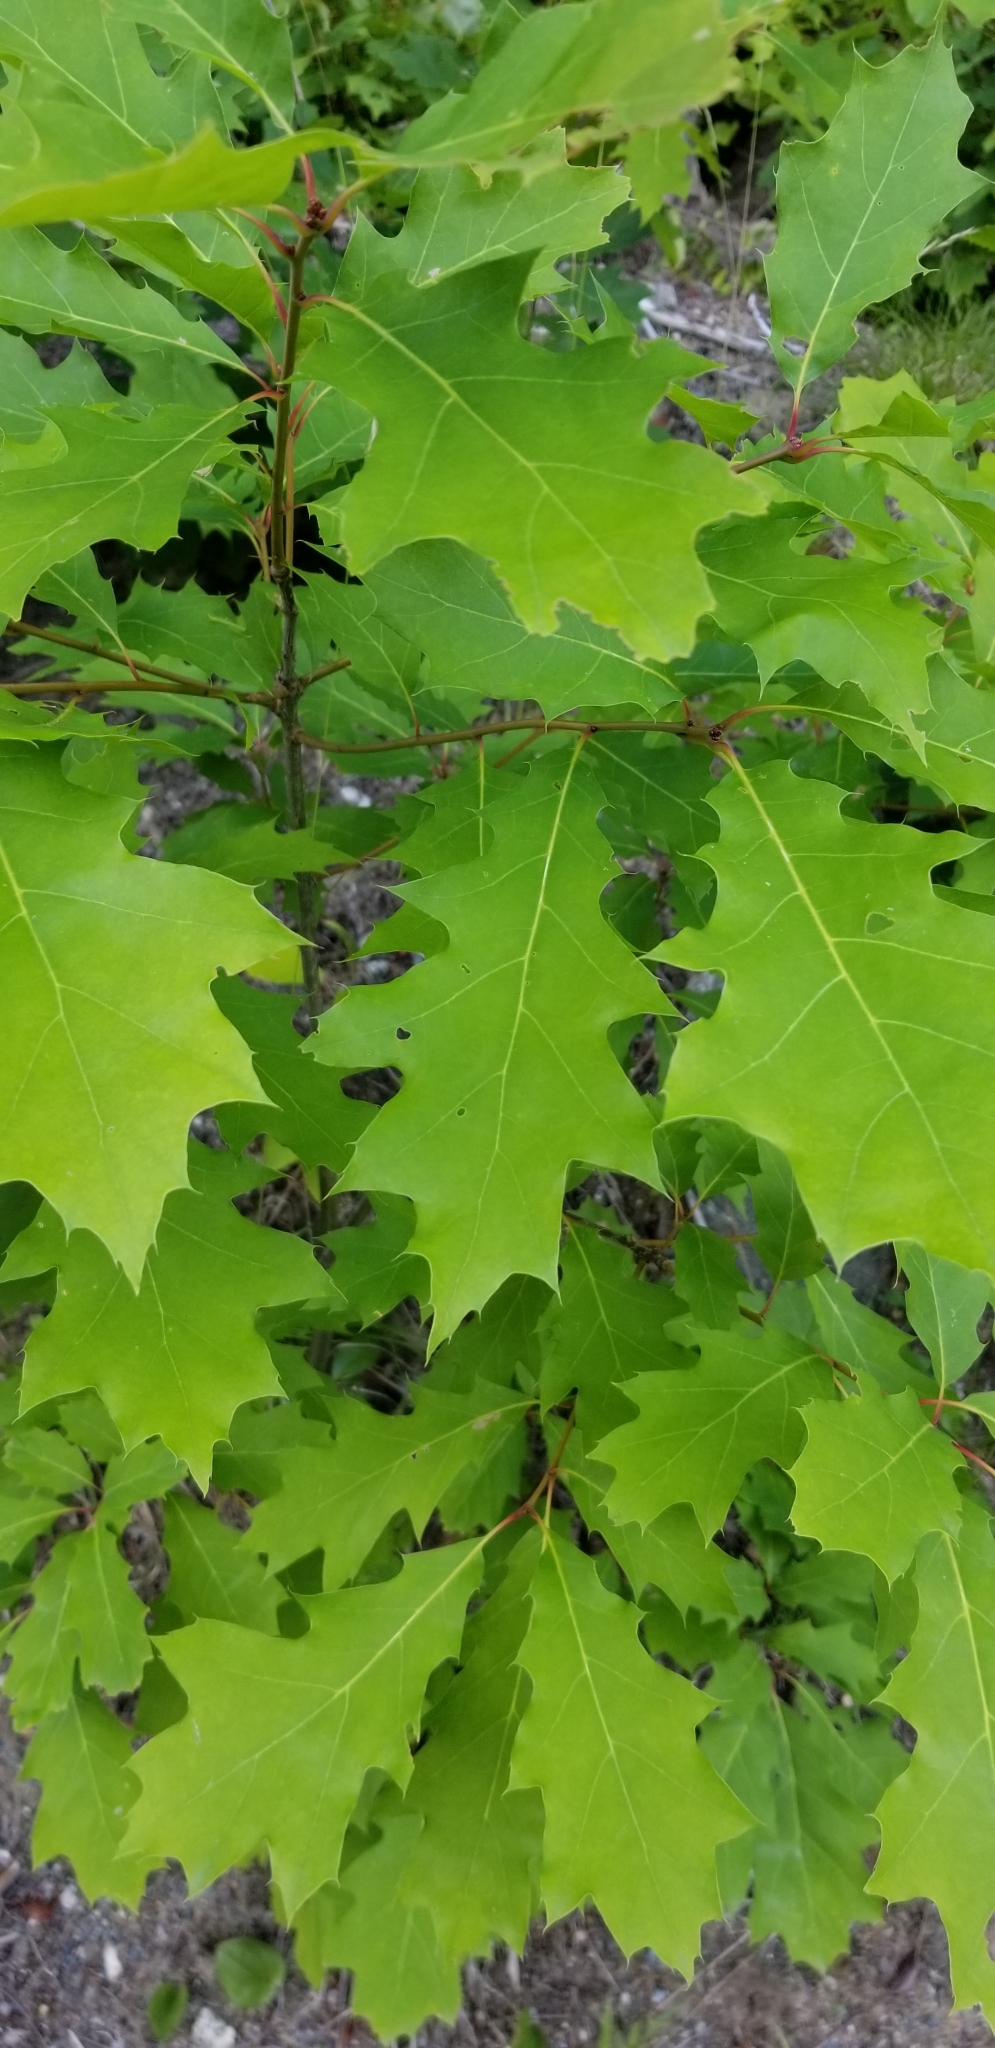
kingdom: Plantae
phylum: Tracheophyta
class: Magnoliopsida
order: Fagales
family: Fagaceae
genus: Quercus
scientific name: Quercus rubra
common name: Red oak
